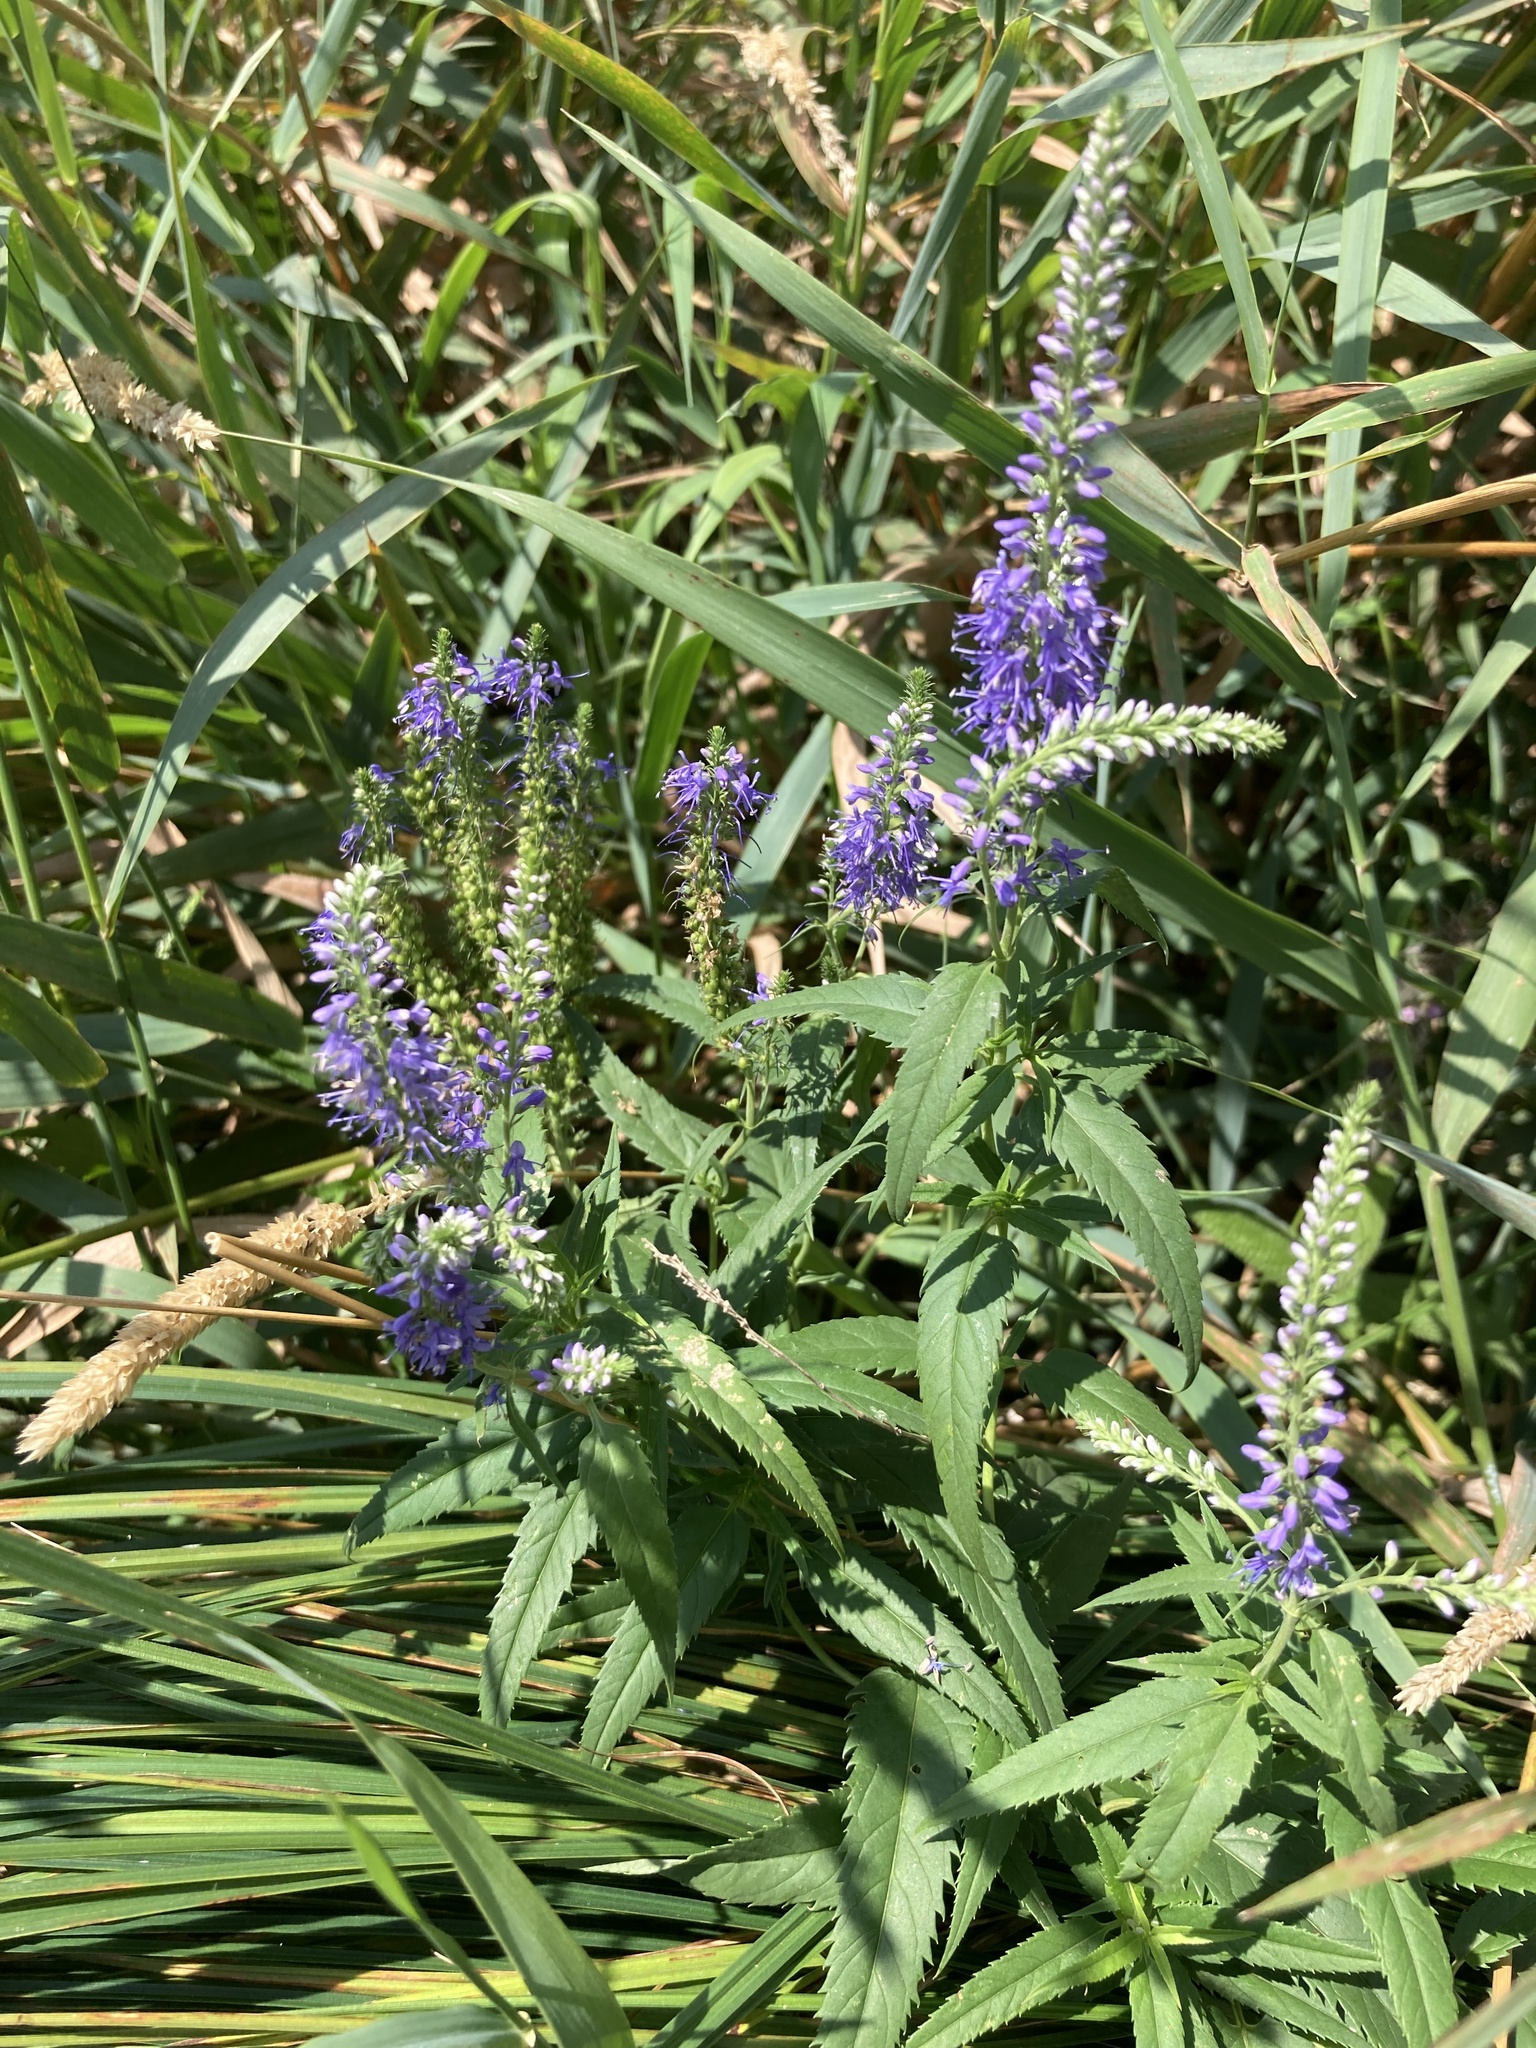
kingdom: Plantae
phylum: Tracheophyta
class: Magnoliopsida
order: Lamiales
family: Plantaginaceae
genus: Veronica
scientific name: Veronica longifolia
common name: Garden speedwell
